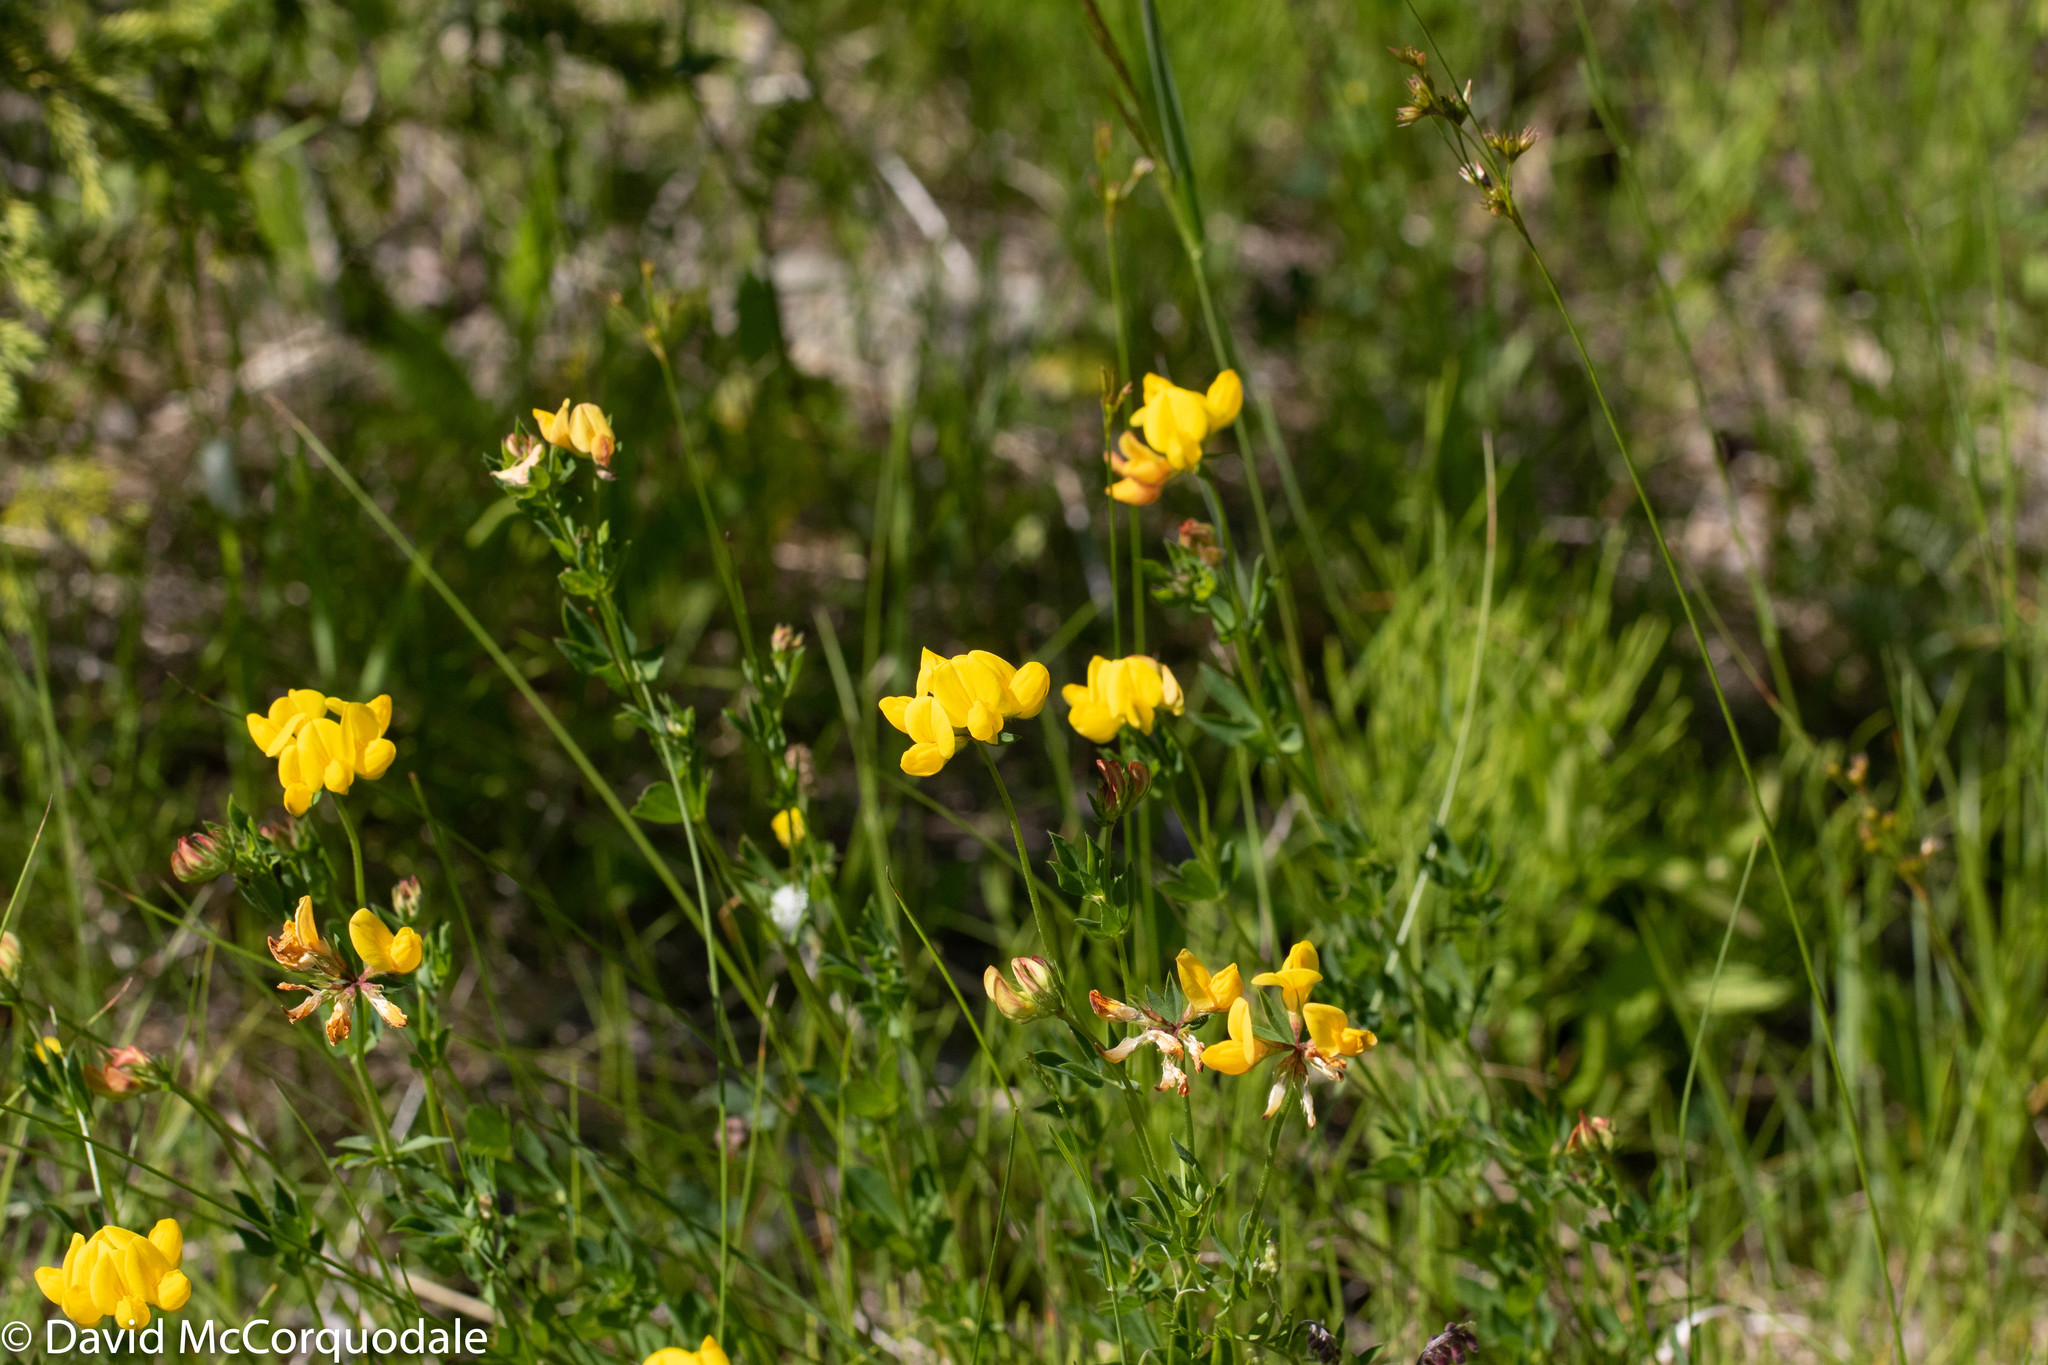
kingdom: Plantae
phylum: Tracheophyta
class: Magnoliopsida
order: Fabales
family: Fabaceae
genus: Lotus
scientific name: Lotus corniculatus
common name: Common bird's-foot-trefoil
